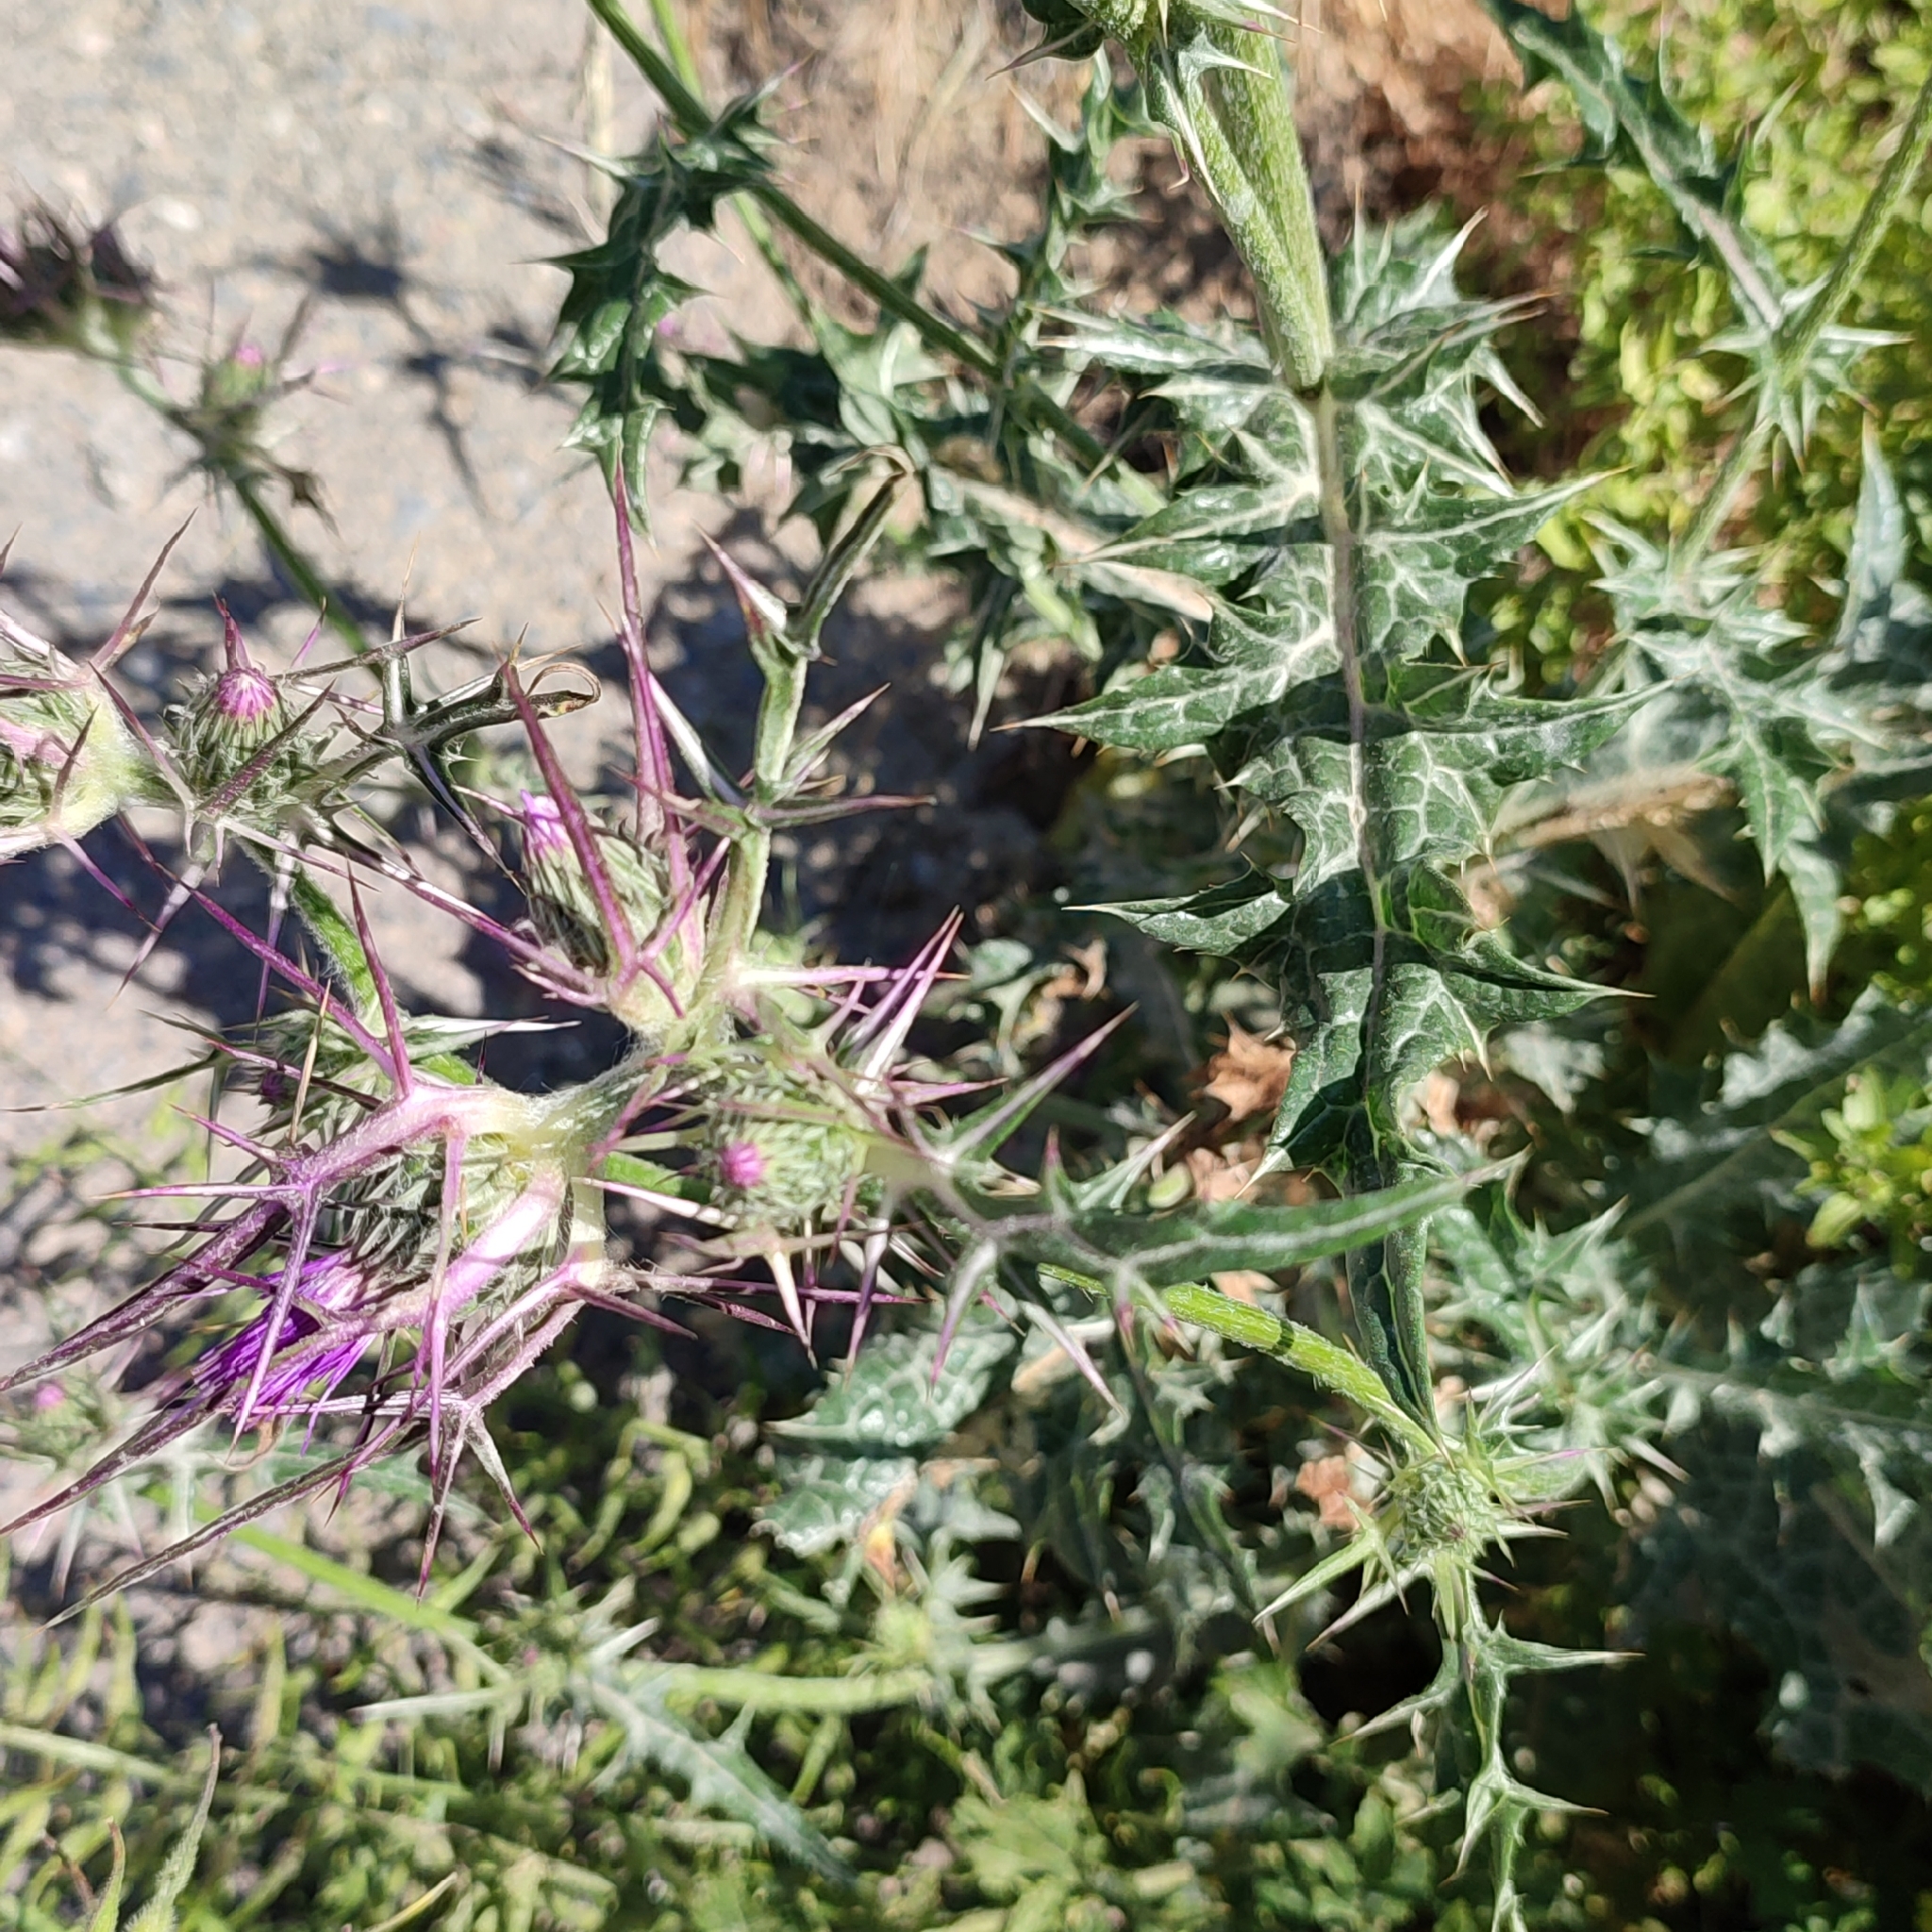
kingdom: Plantae
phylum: Tracheophyta
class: Magnoliopsida
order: Asterales
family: Asteraceae
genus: Notobasis
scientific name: Notobasis syriaca
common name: Syrian thistle
